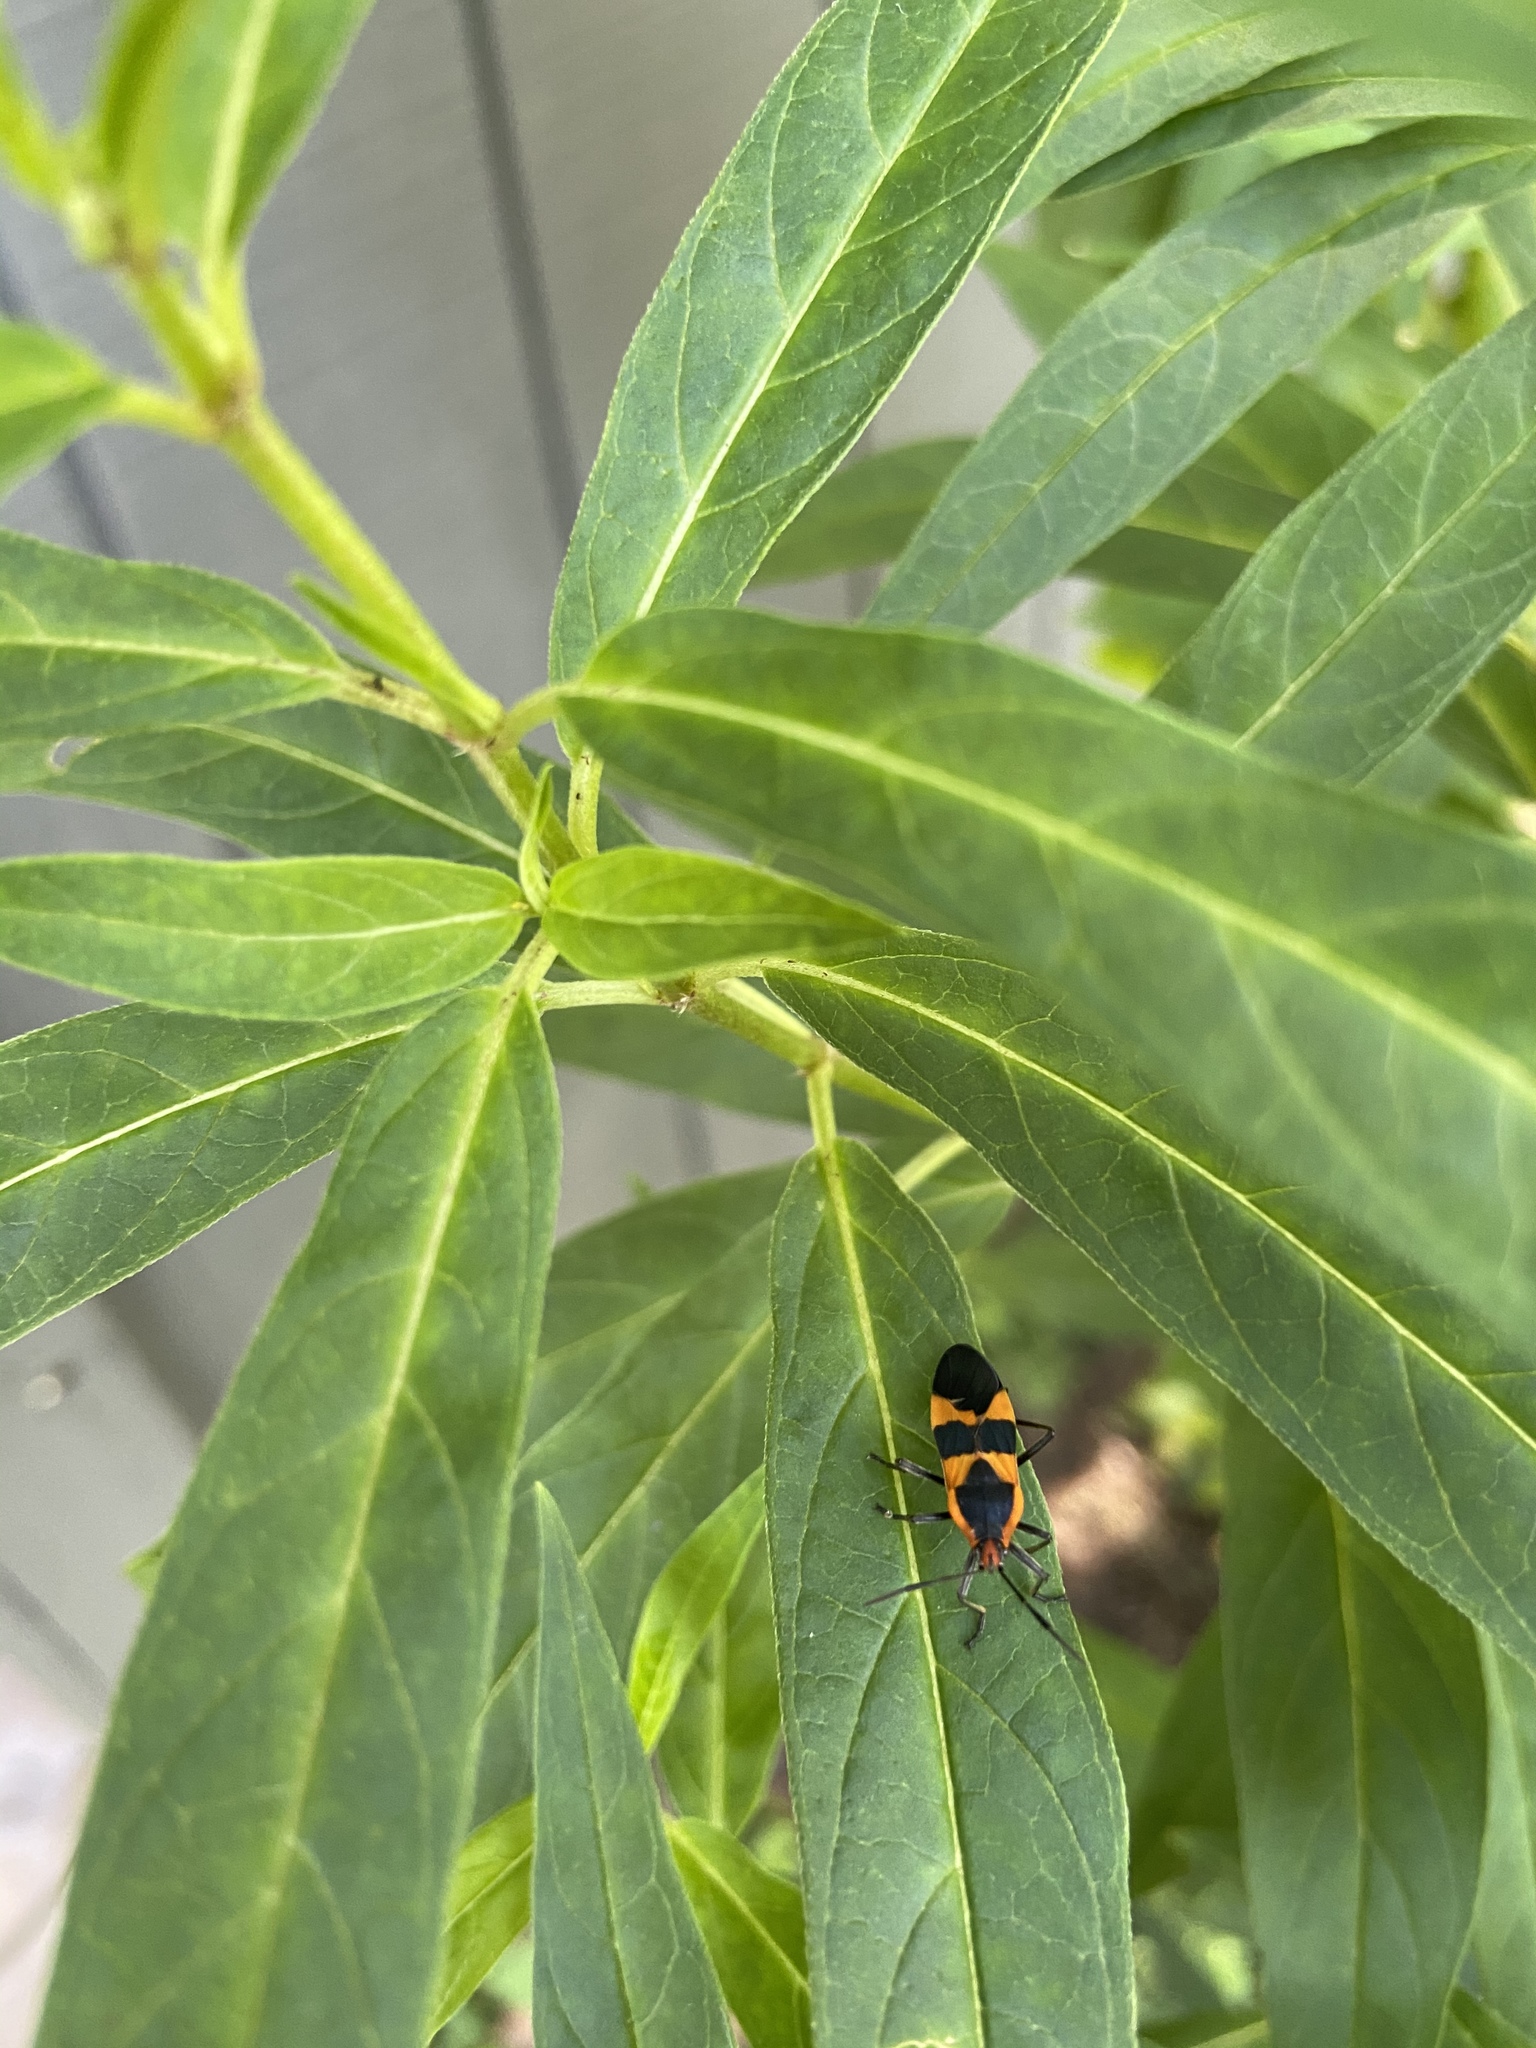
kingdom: Animalia
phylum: Arthropoda
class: Insecta
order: Hemiptera
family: Lygaeidae
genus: Oncopeltus
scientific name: Oncopeltus fasciatus
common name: Large milkweed bug
